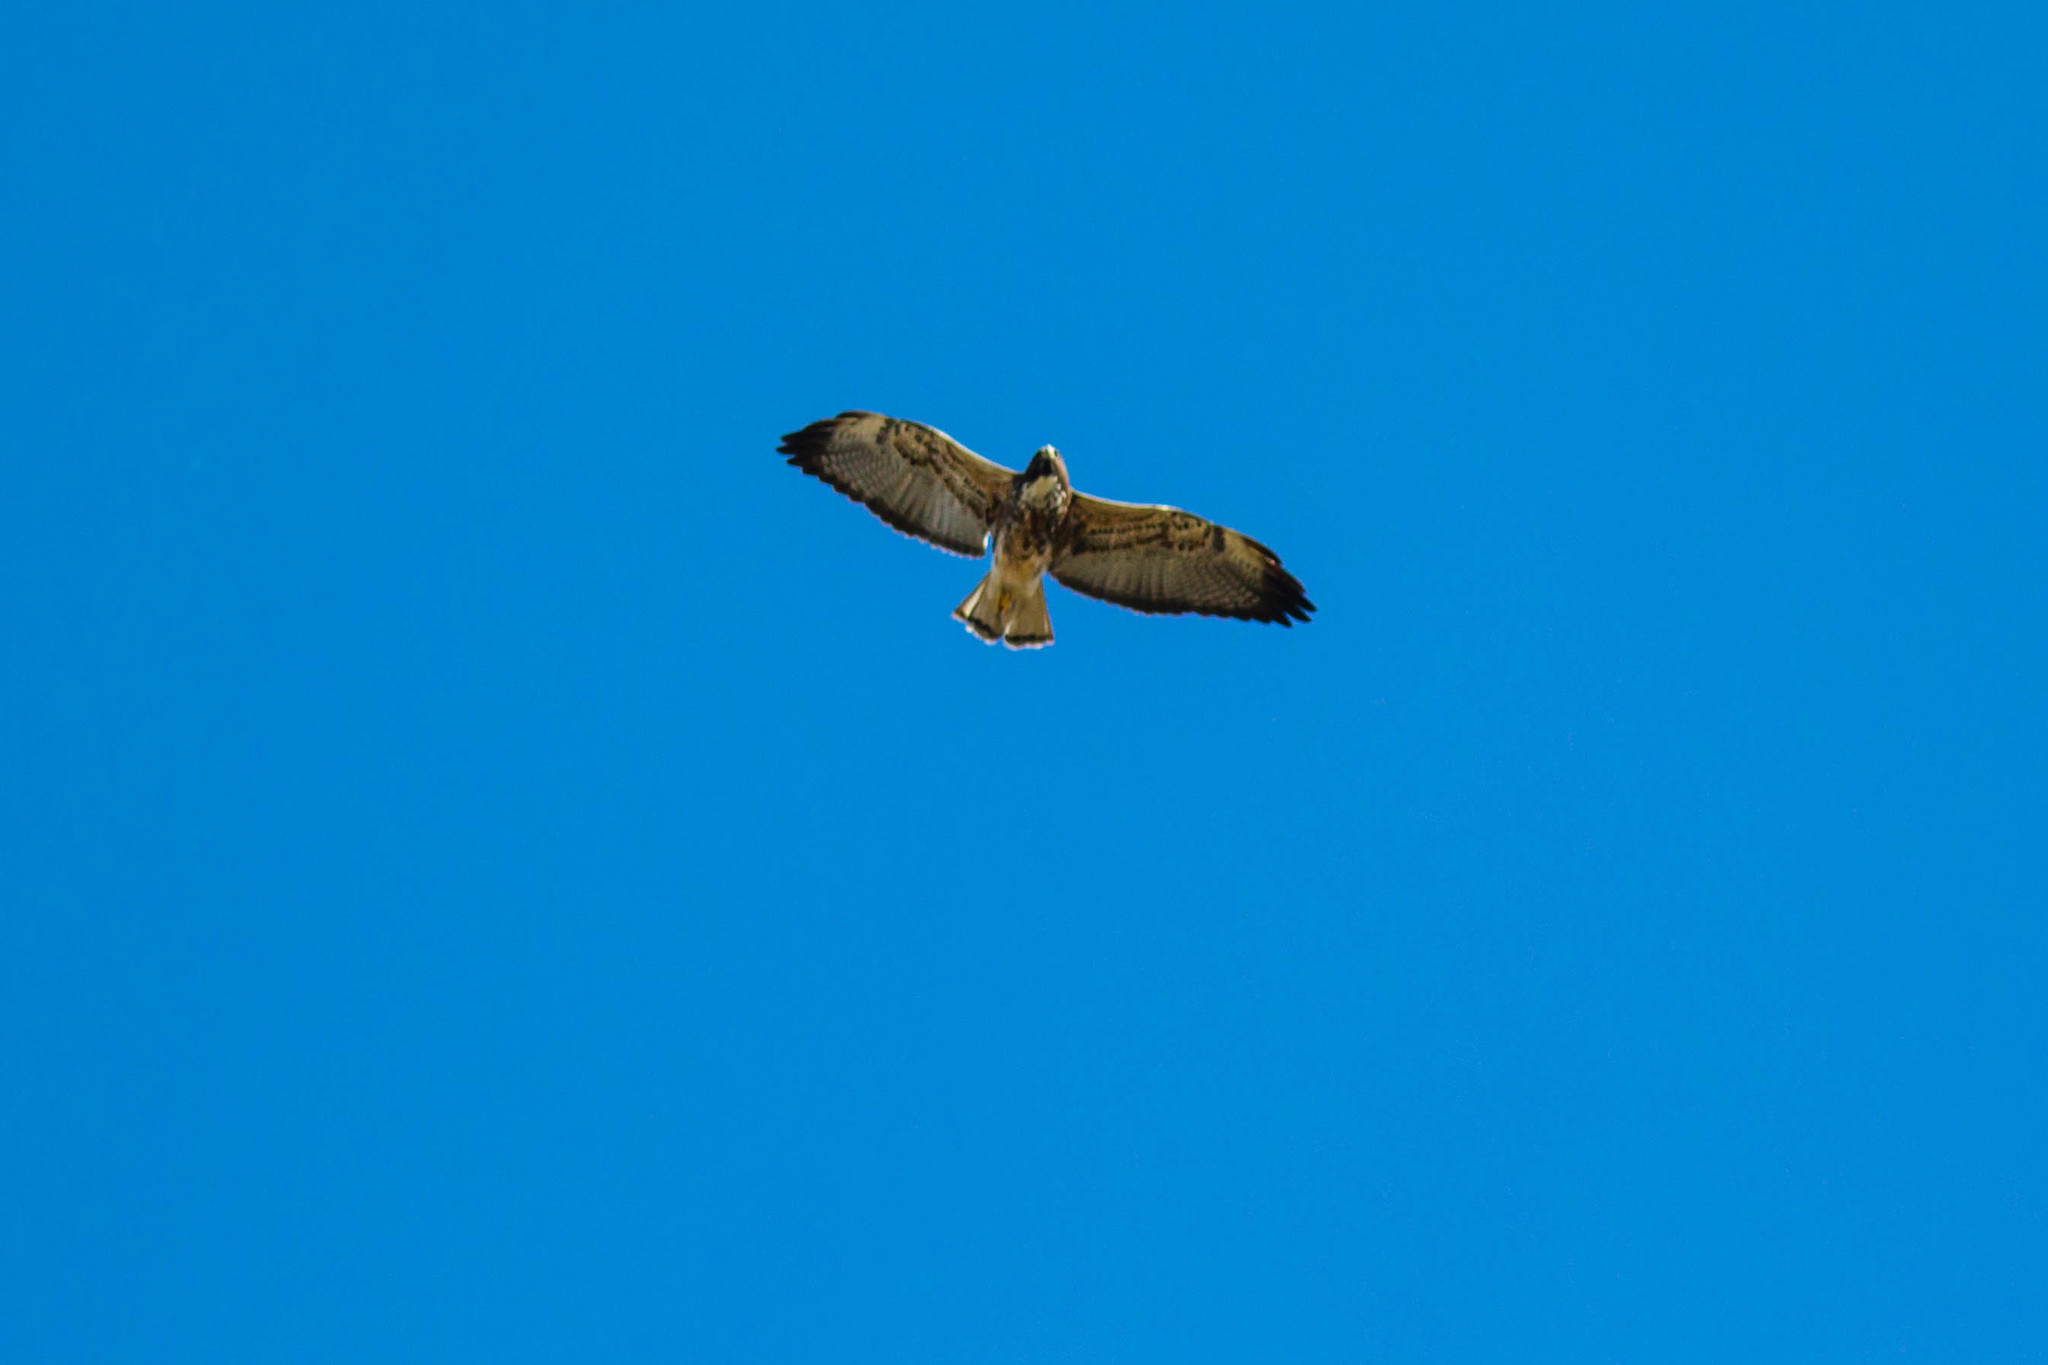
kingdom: Animalia
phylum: Chordata
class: Aves
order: Accipitriformes
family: Accipitridae
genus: Buteo
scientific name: Buteo albicaudatus
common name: White-tailed hawk
